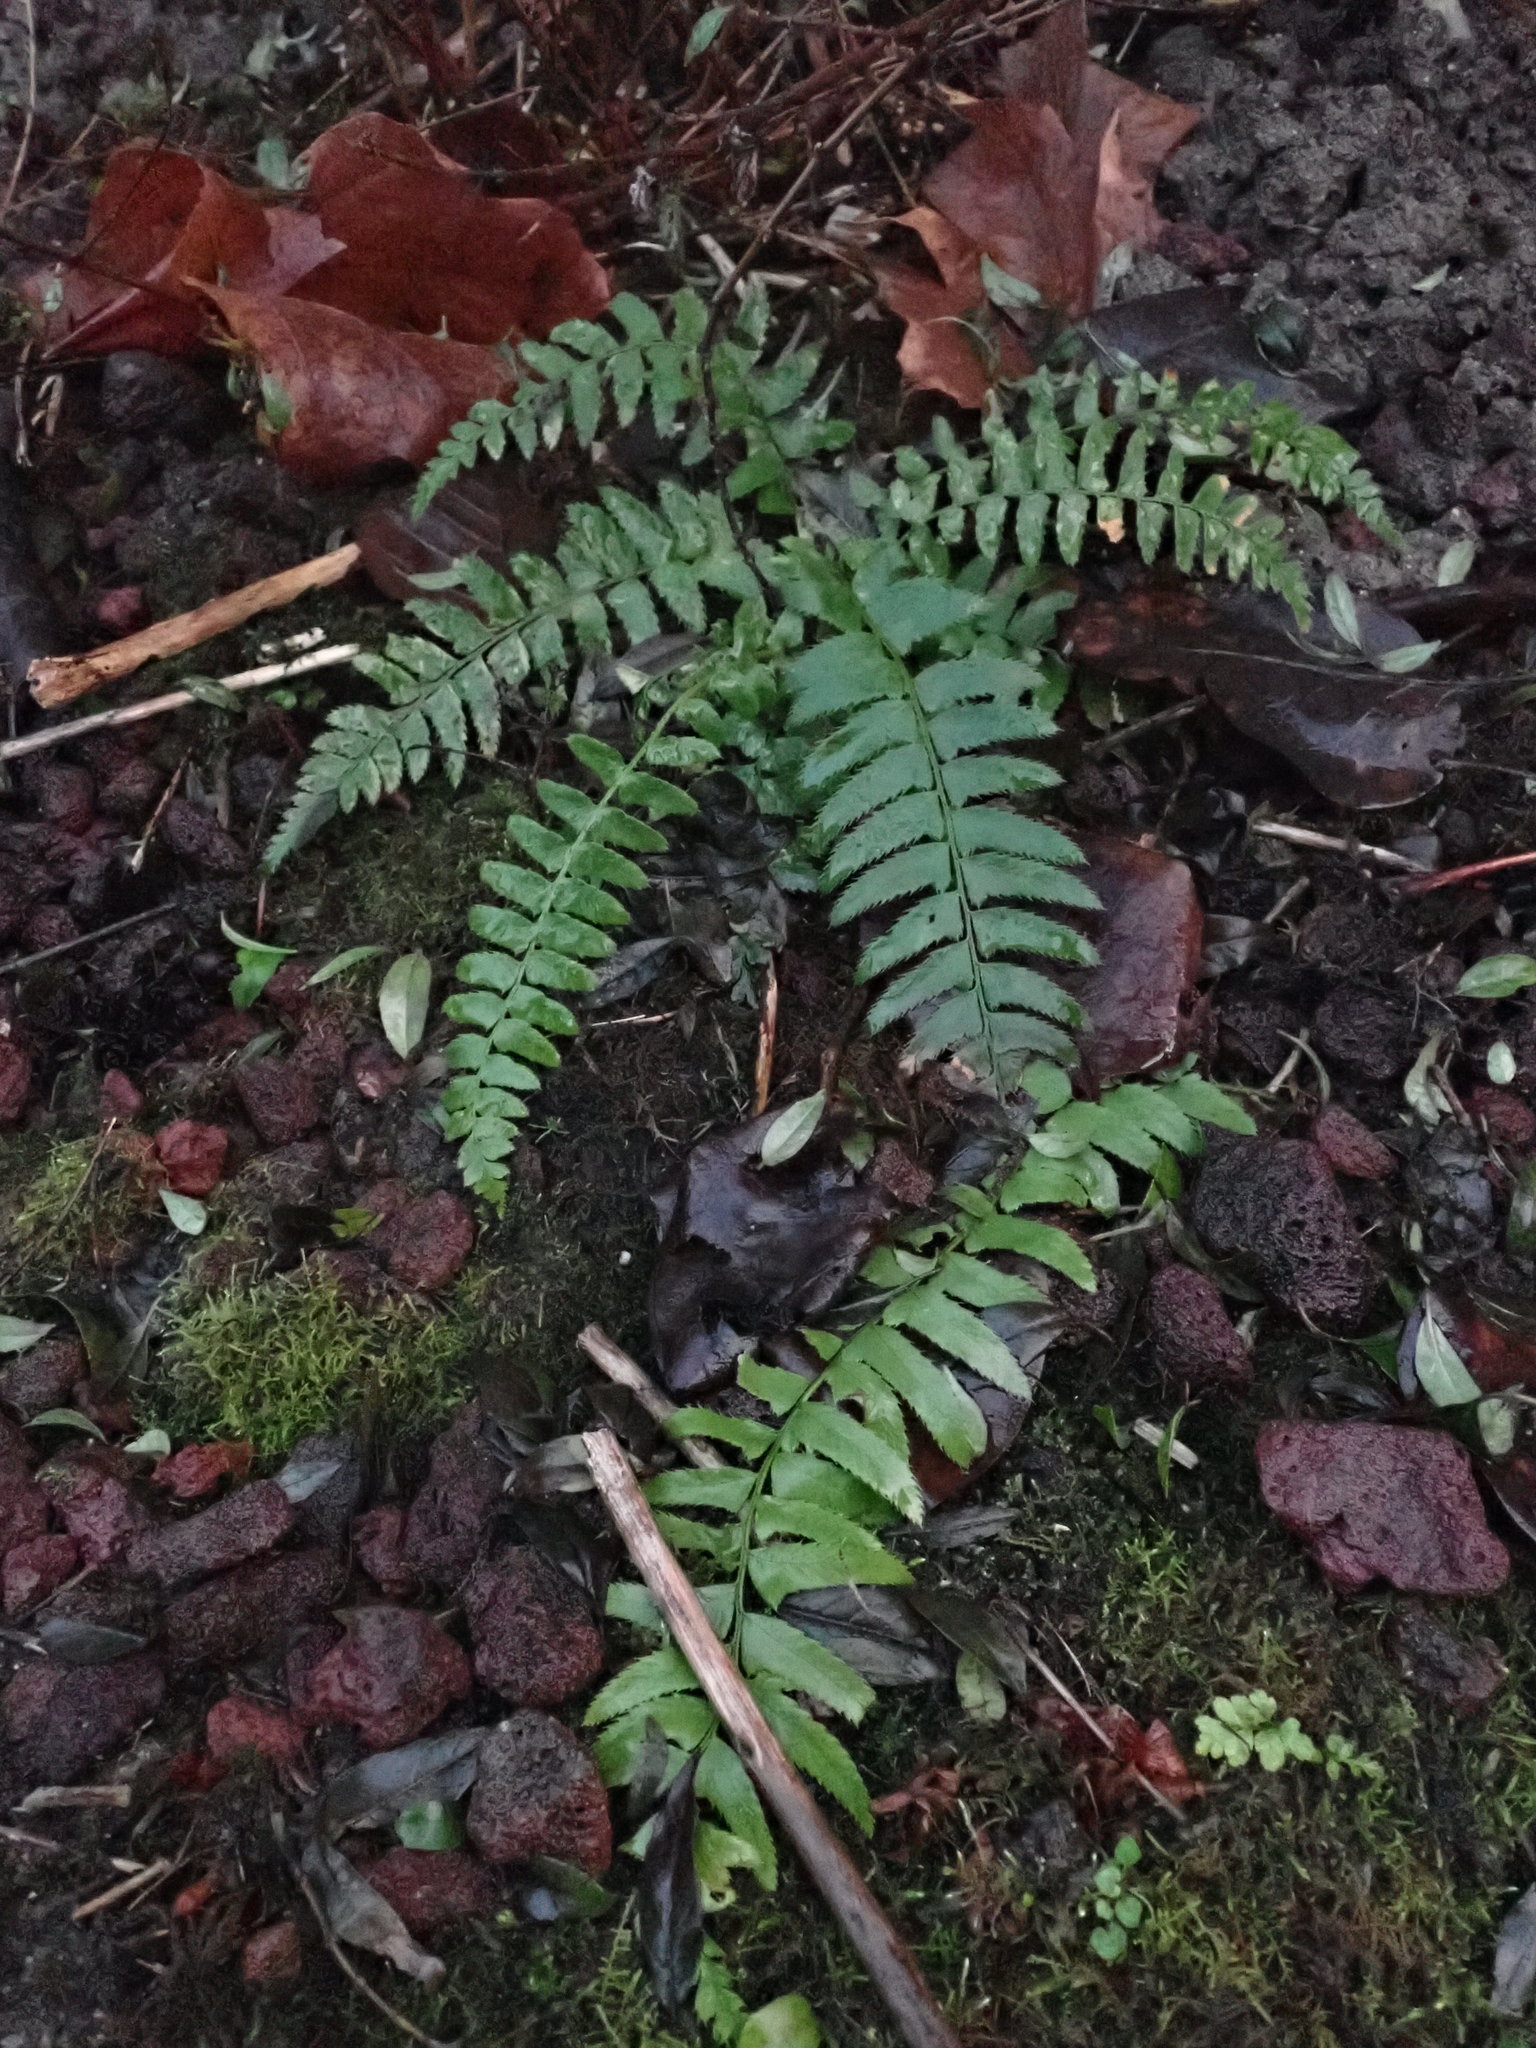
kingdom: Plantae
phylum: Tracheophyta
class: Polypodiopsida
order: Polypodiales
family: Dryopteridaceae
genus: Polystichum
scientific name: Polystichum munitum
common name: Western sword-fern
